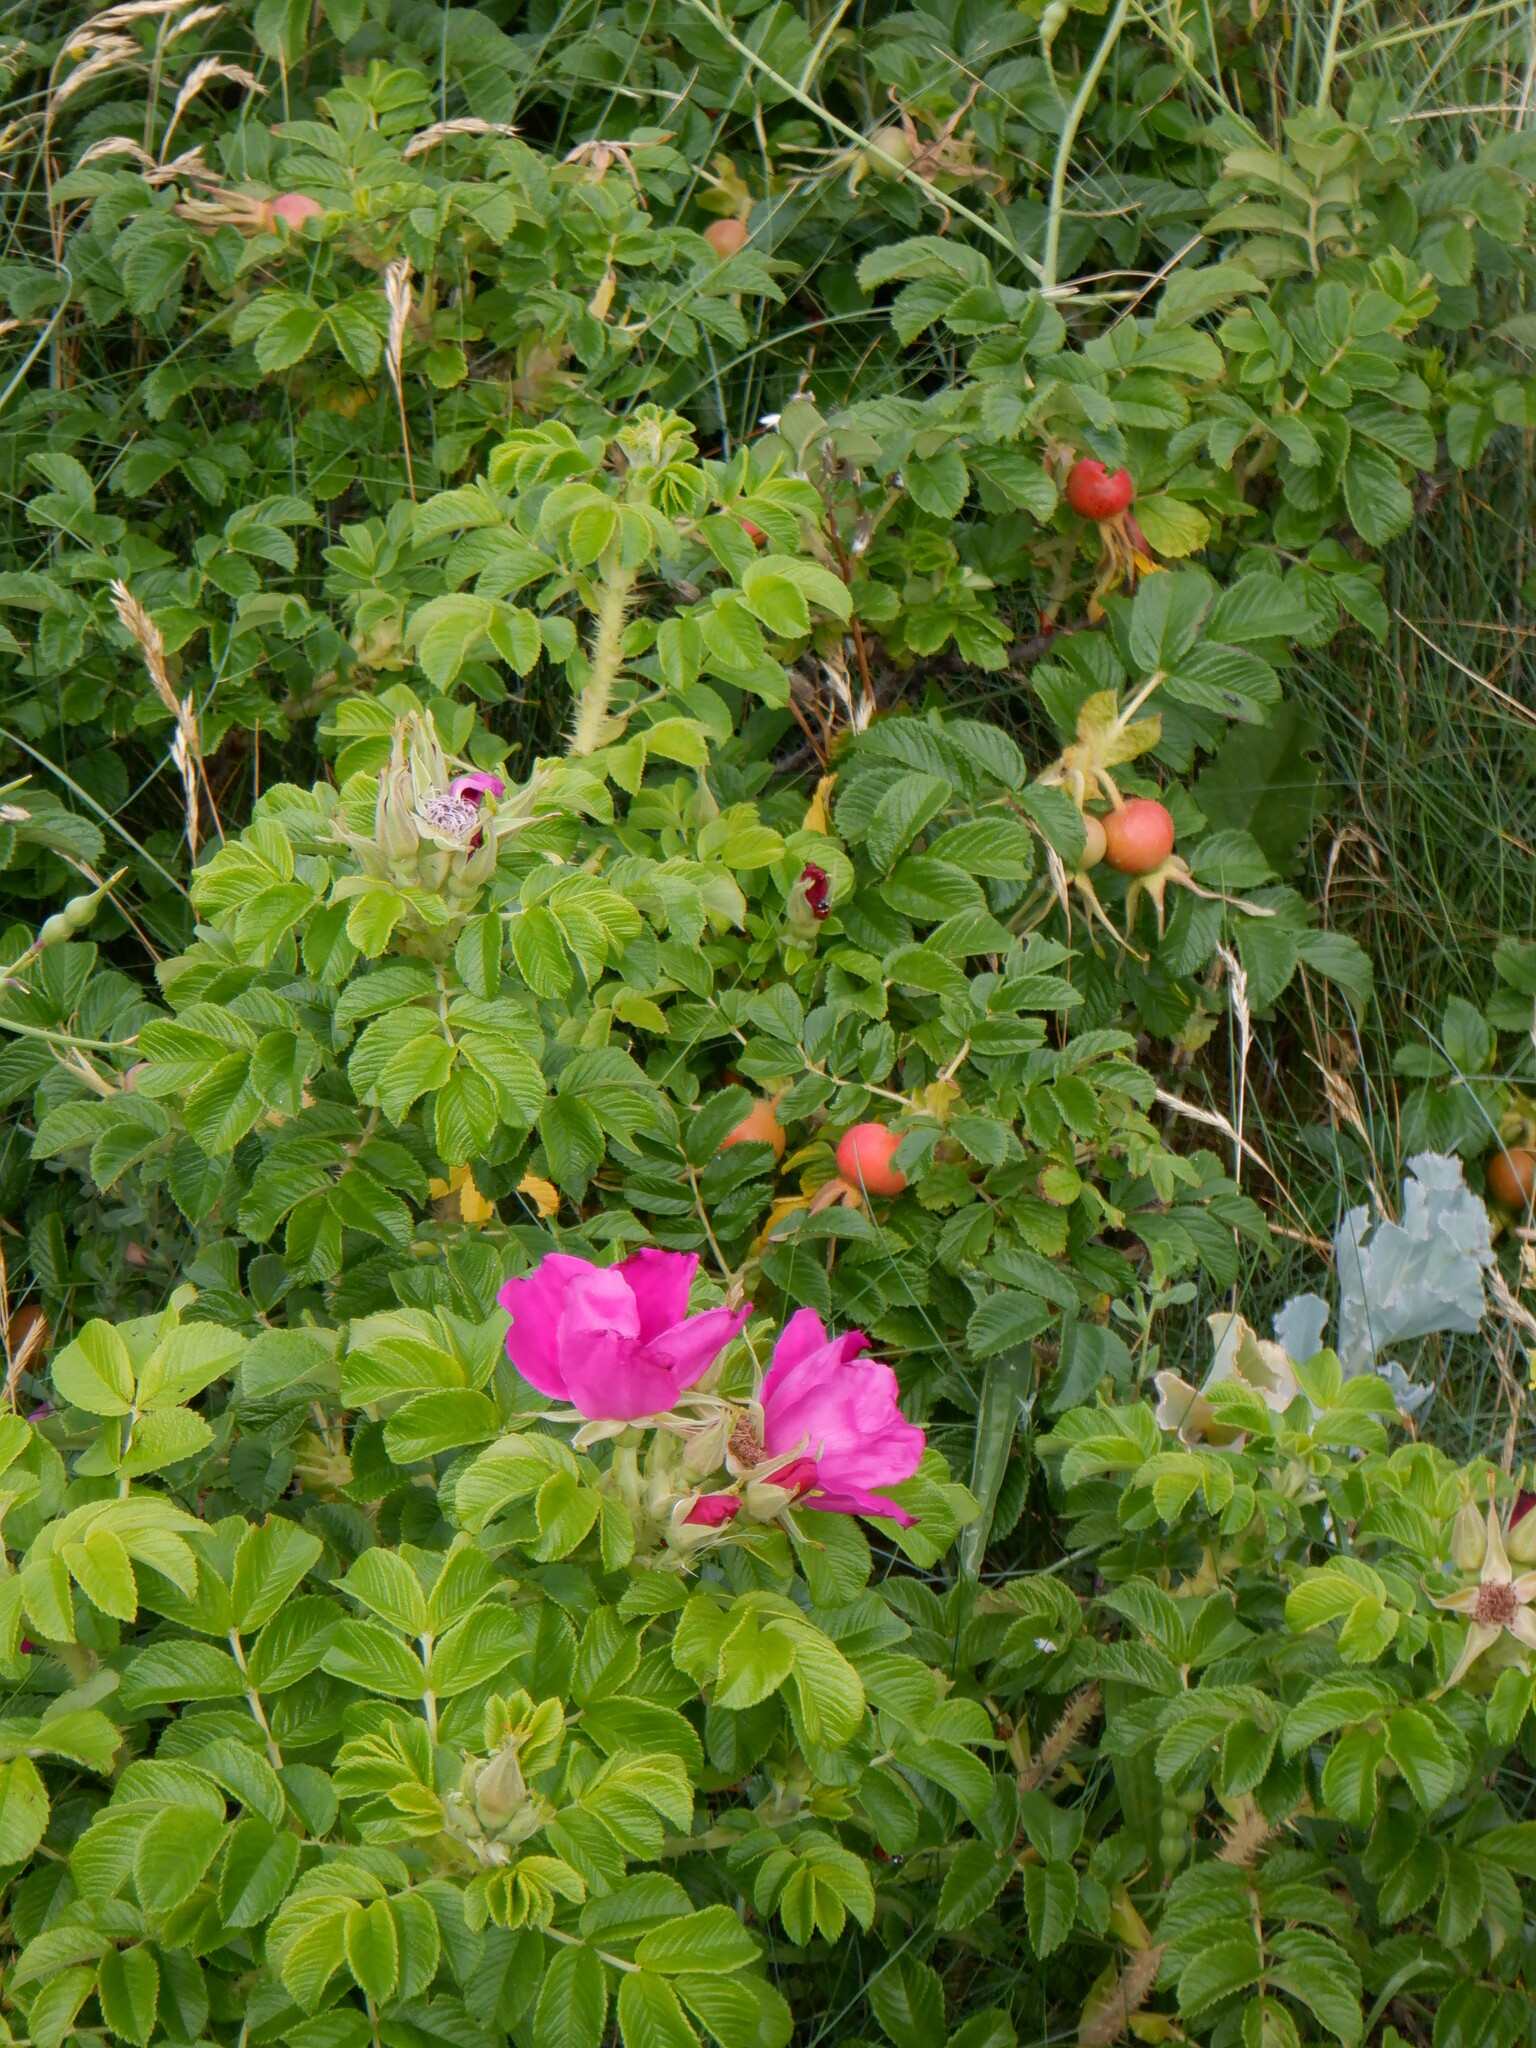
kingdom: Plantae
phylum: Tracheophyta
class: Magnoliopsida
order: Rosales
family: Rosaceae
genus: Rosa
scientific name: Rosa rugosa
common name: Japanese rose
